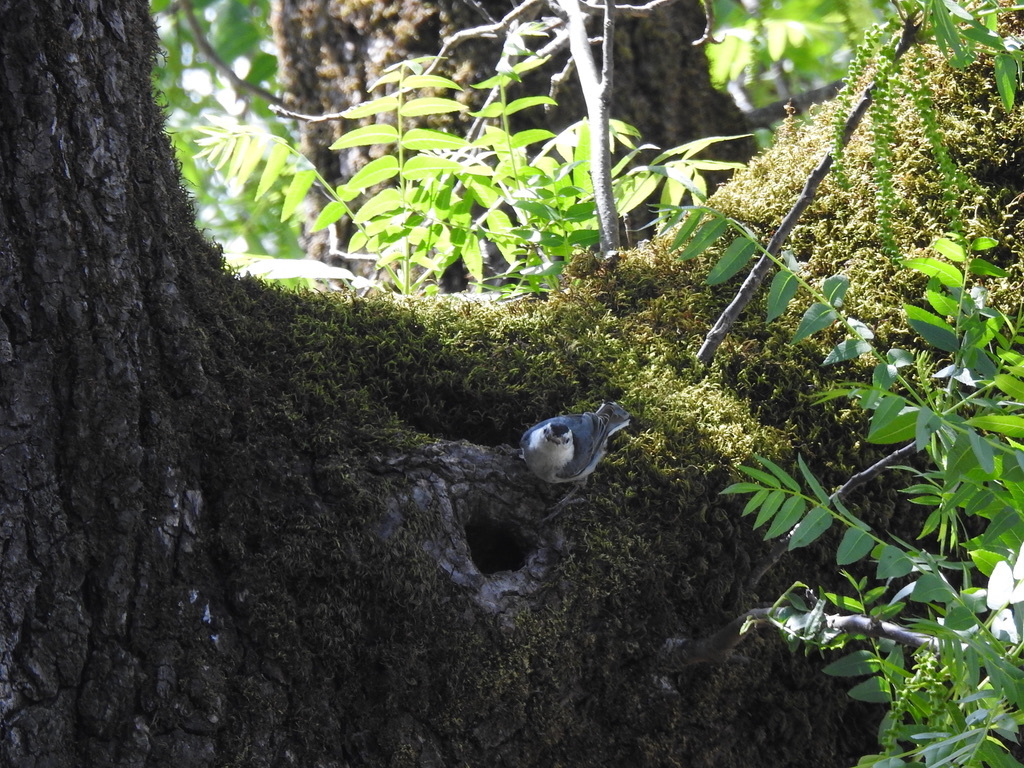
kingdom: Animalia
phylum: Chordata
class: Aves
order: Passeriformes
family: Sittidae
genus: Sitta
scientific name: Sitta carolinensis
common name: White-breasted nuthatch
